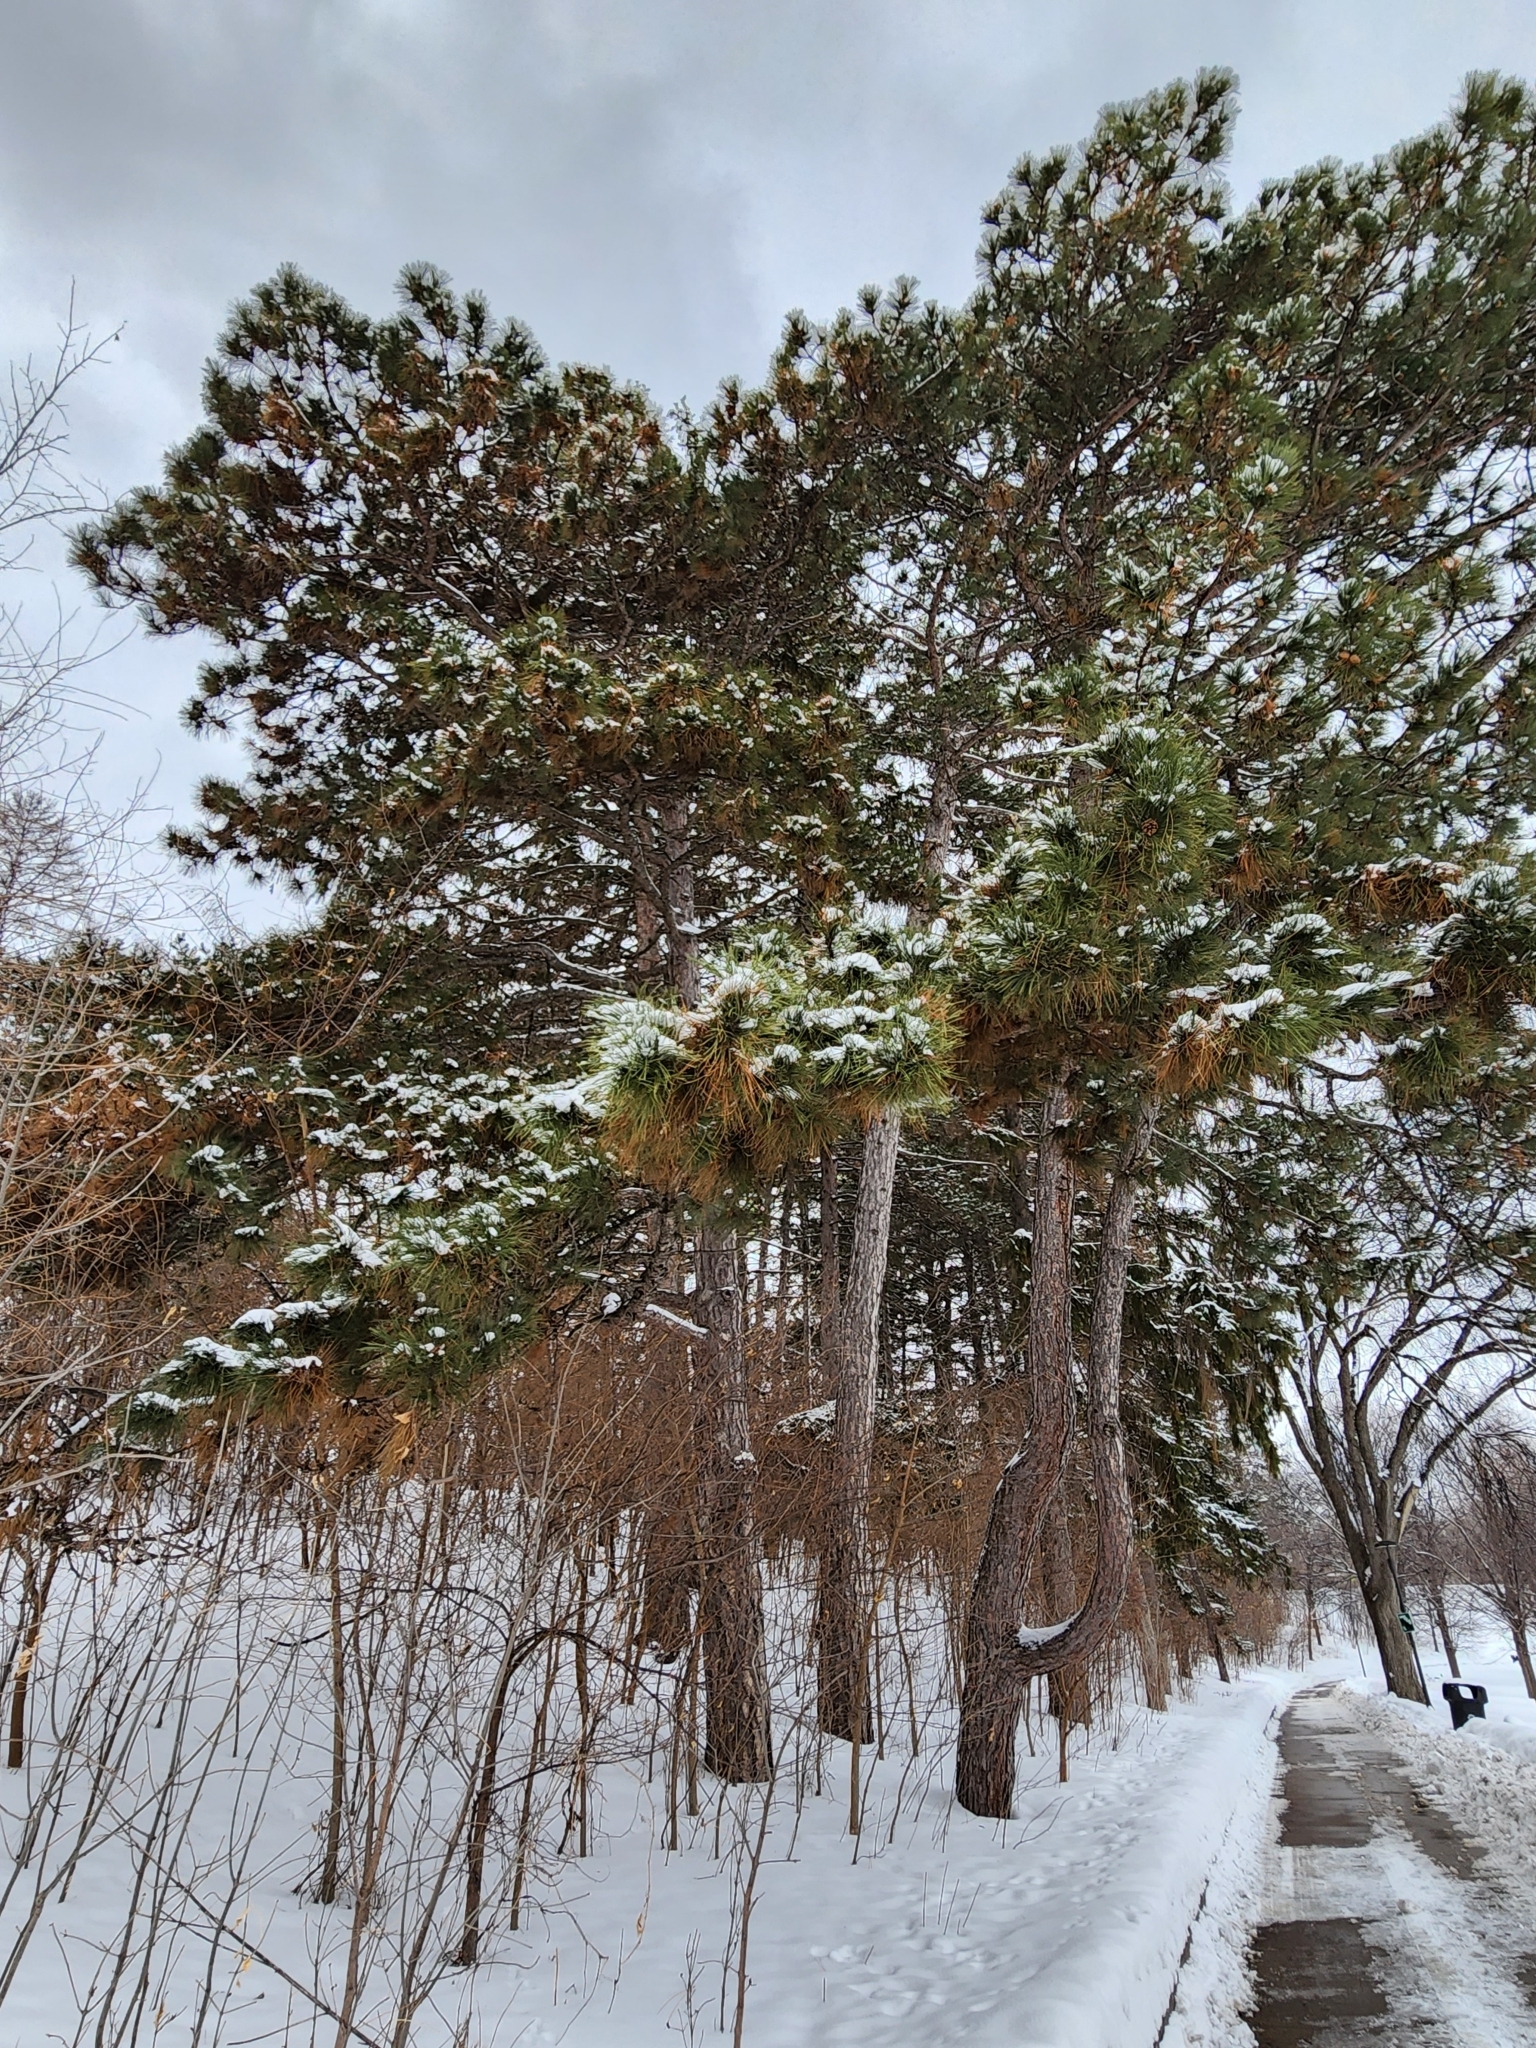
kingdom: Plantae
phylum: Tracheophyta
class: Pinopsida
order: Pinales
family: Pinaceae
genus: Pinus
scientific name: Pinus resinosa
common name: Norway pine
